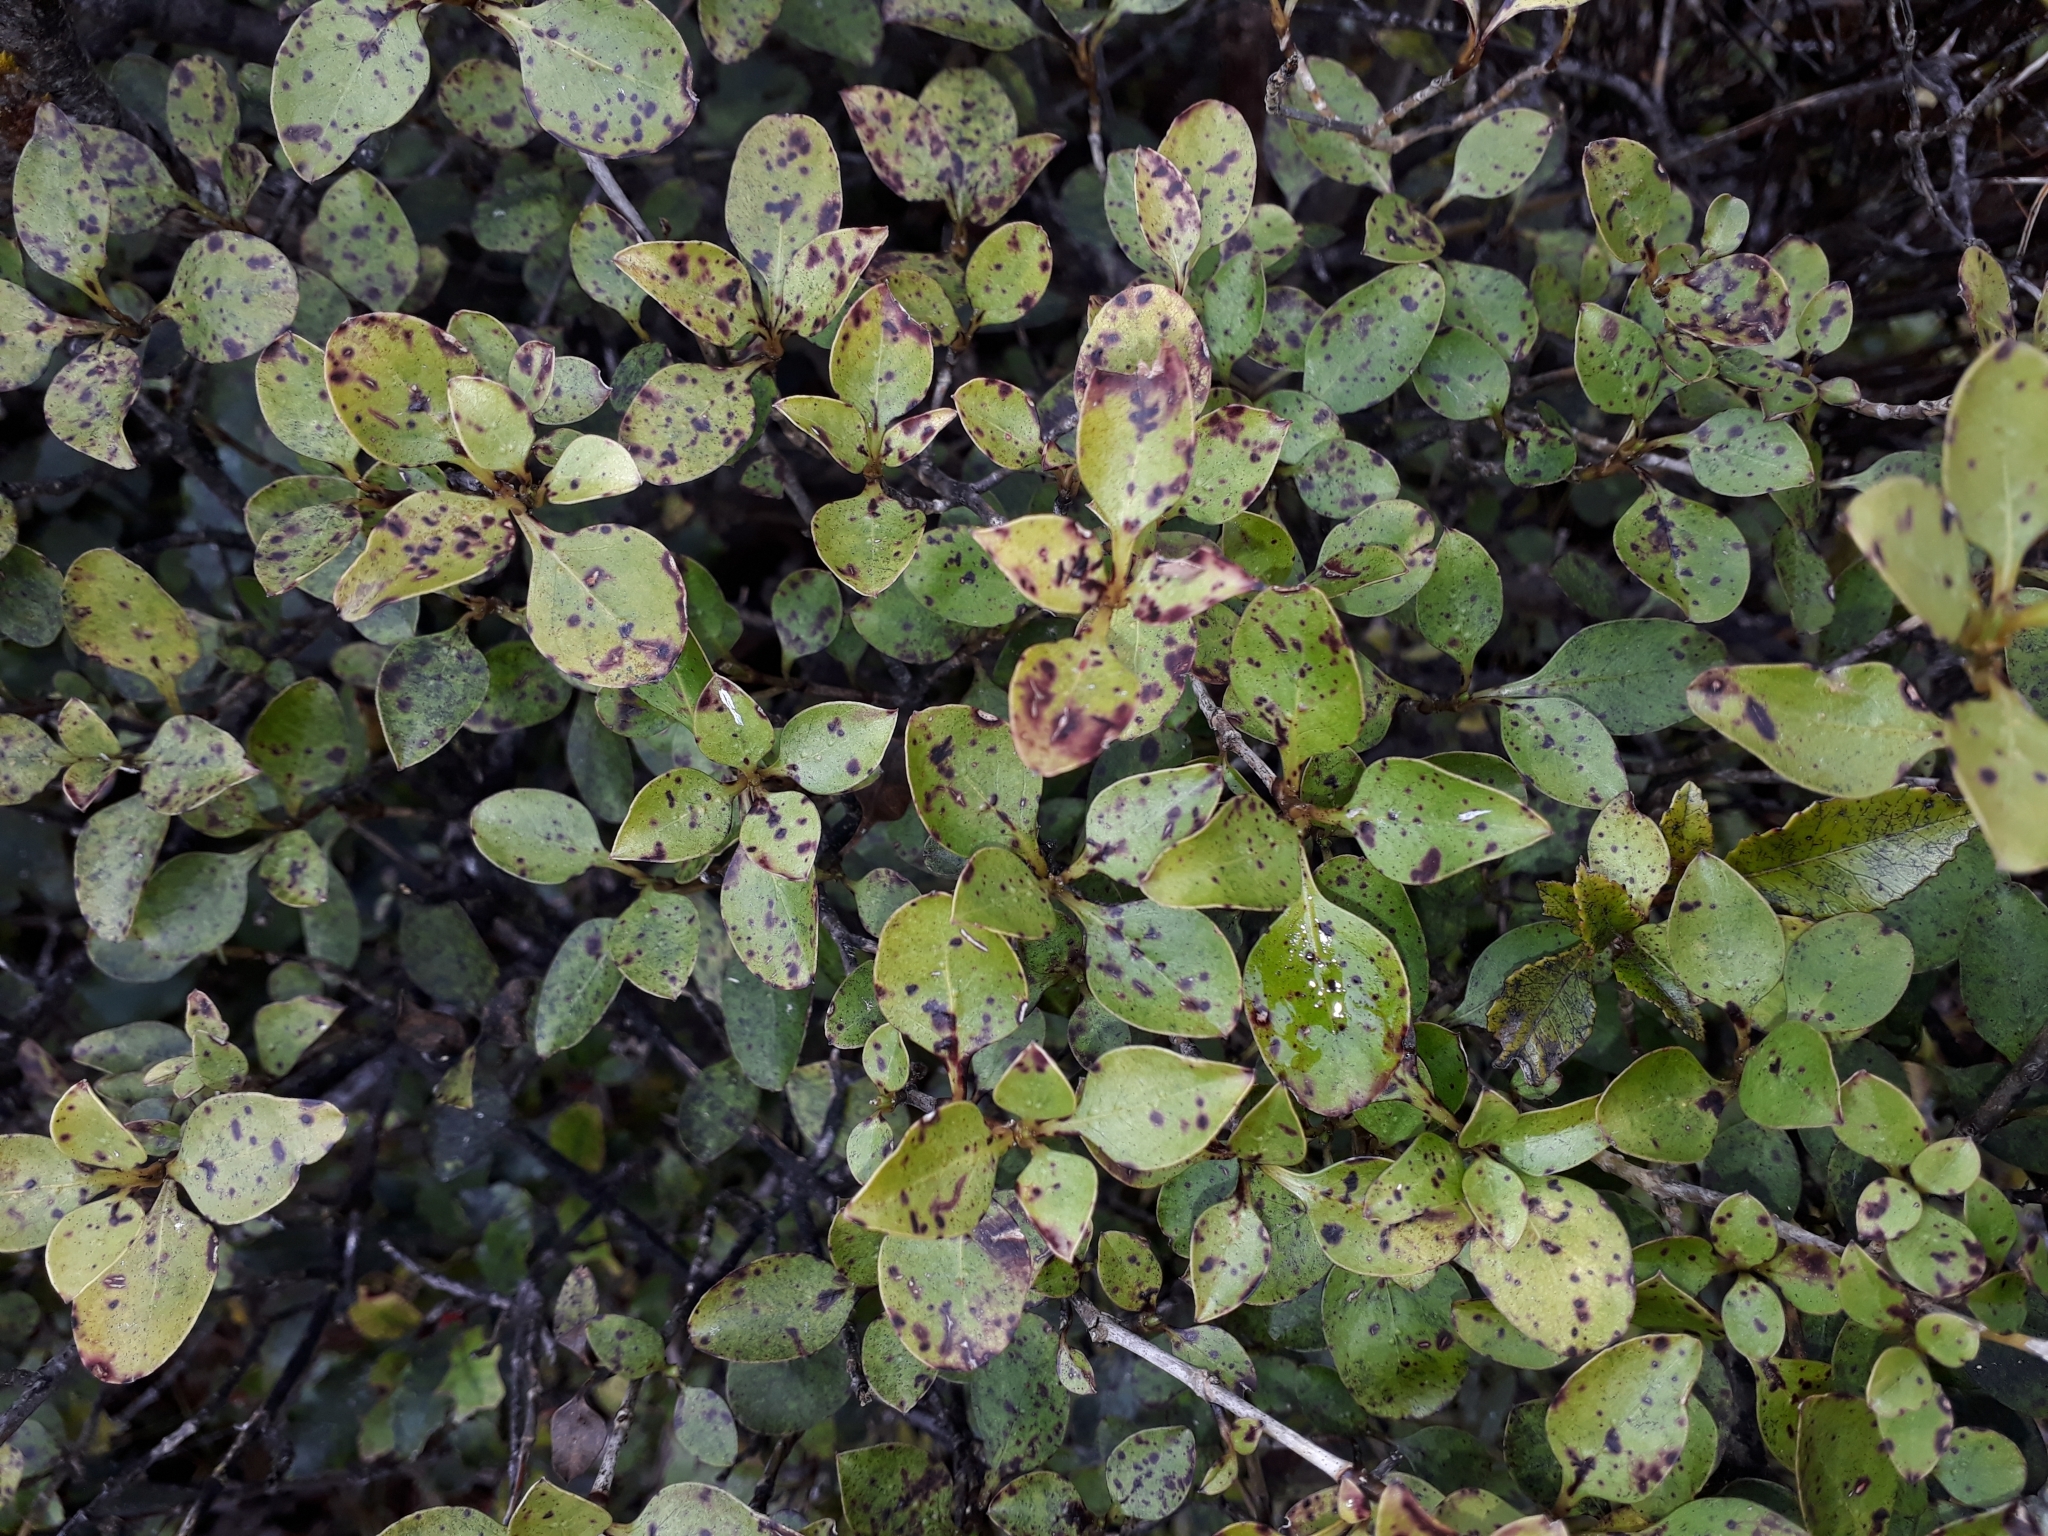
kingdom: Plantae
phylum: Tracheophyta
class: Magnoliopsida
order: Gentianales
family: Rubiaceae
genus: Coprosma
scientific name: Coprosma foetidissima
